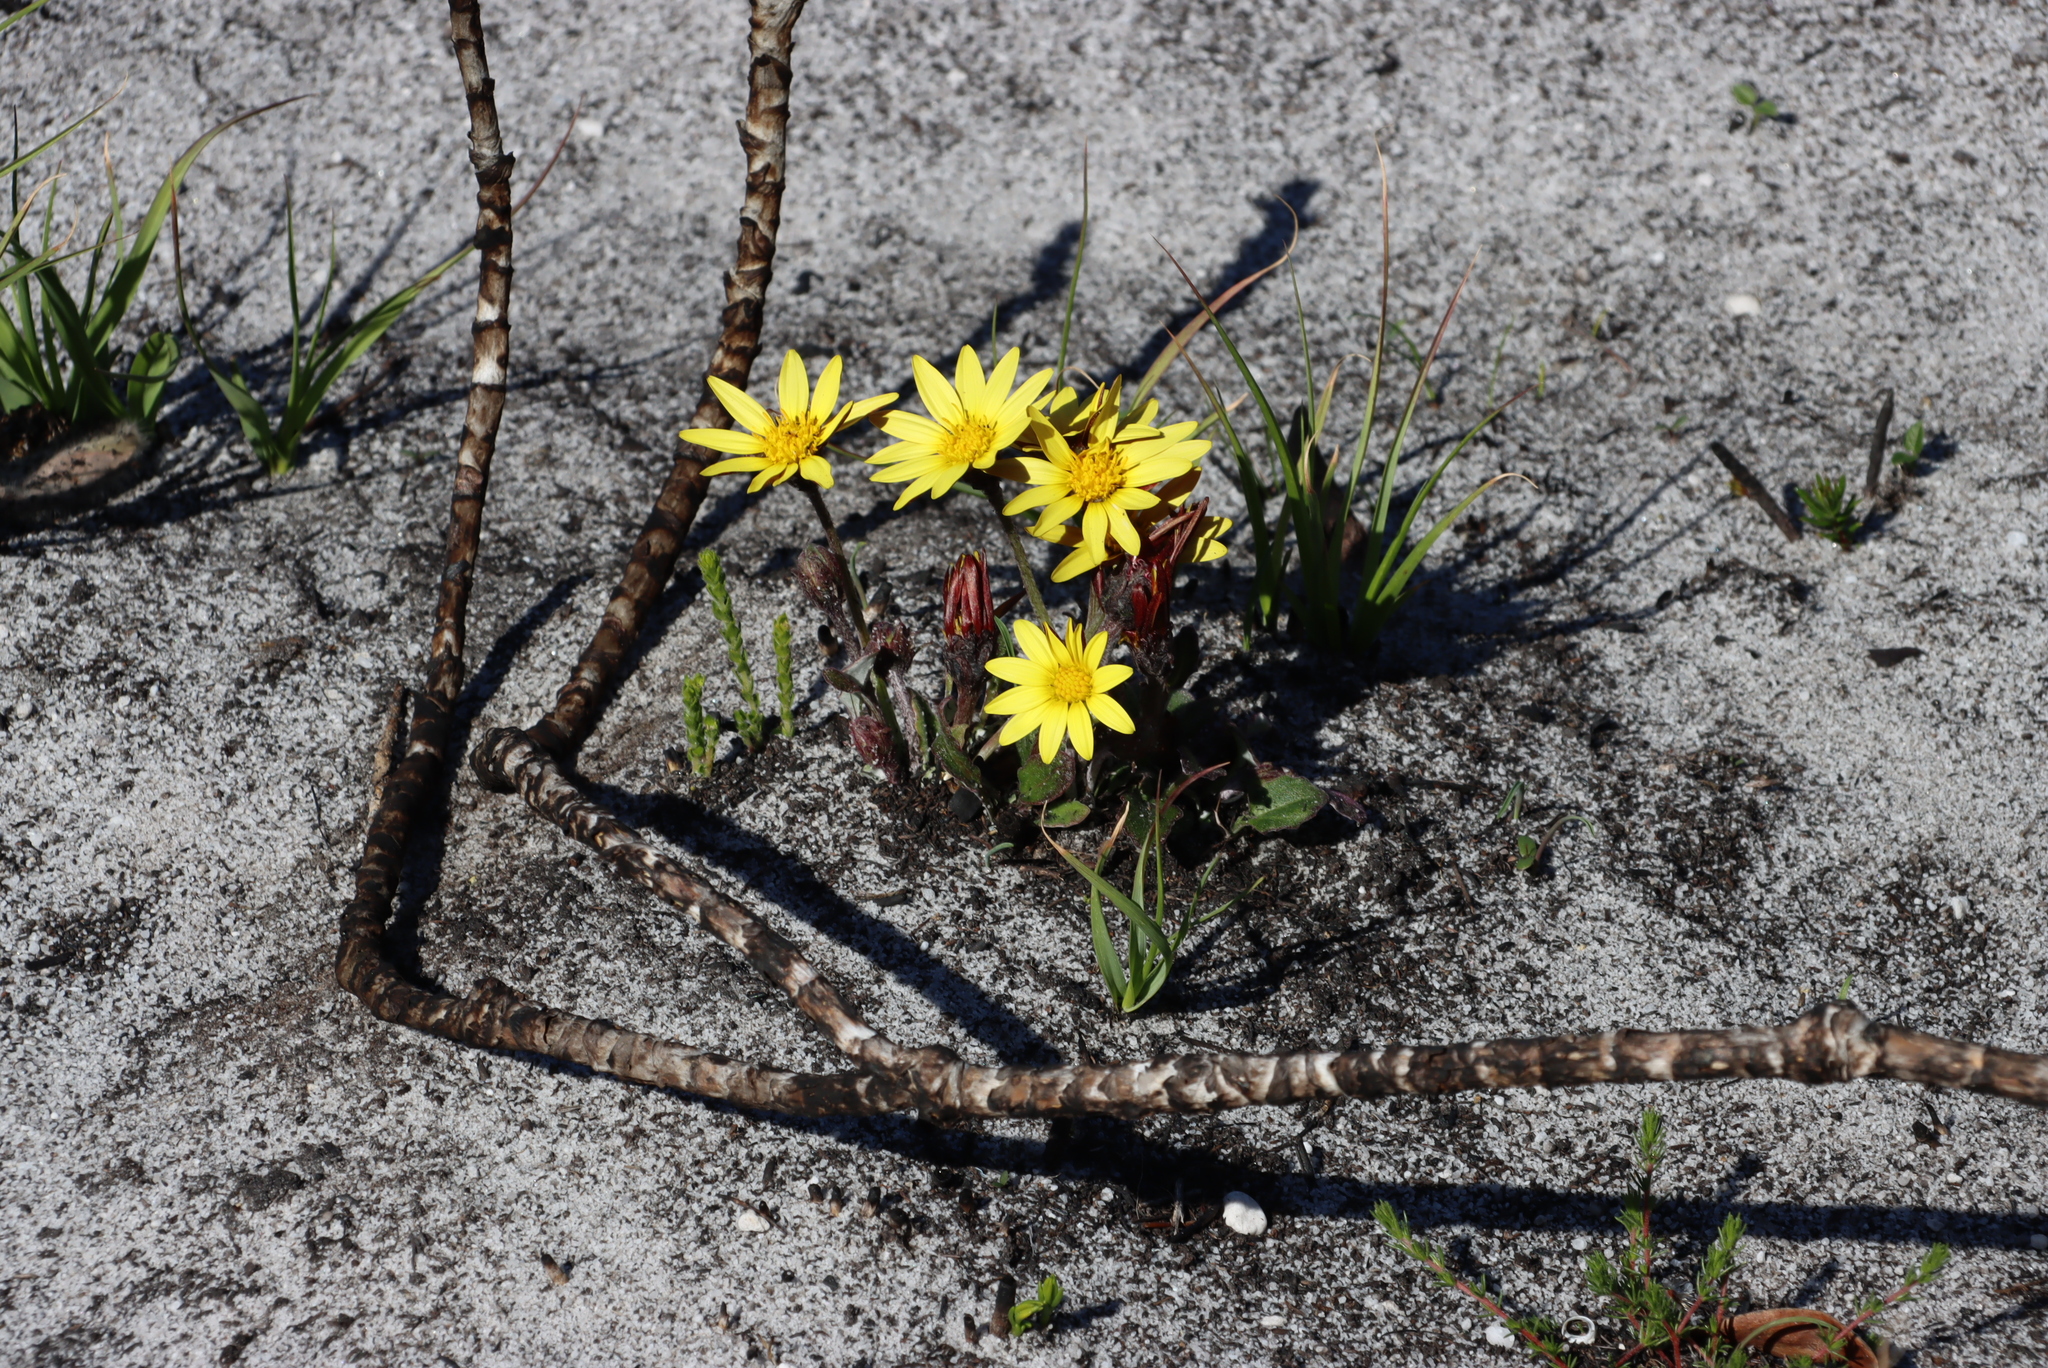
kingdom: Plantae
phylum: Tracheophyta
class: Magnoliopsida
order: Asterales
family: Asteraceae
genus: Haplocarpha
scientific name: Haplocarpha lanata
